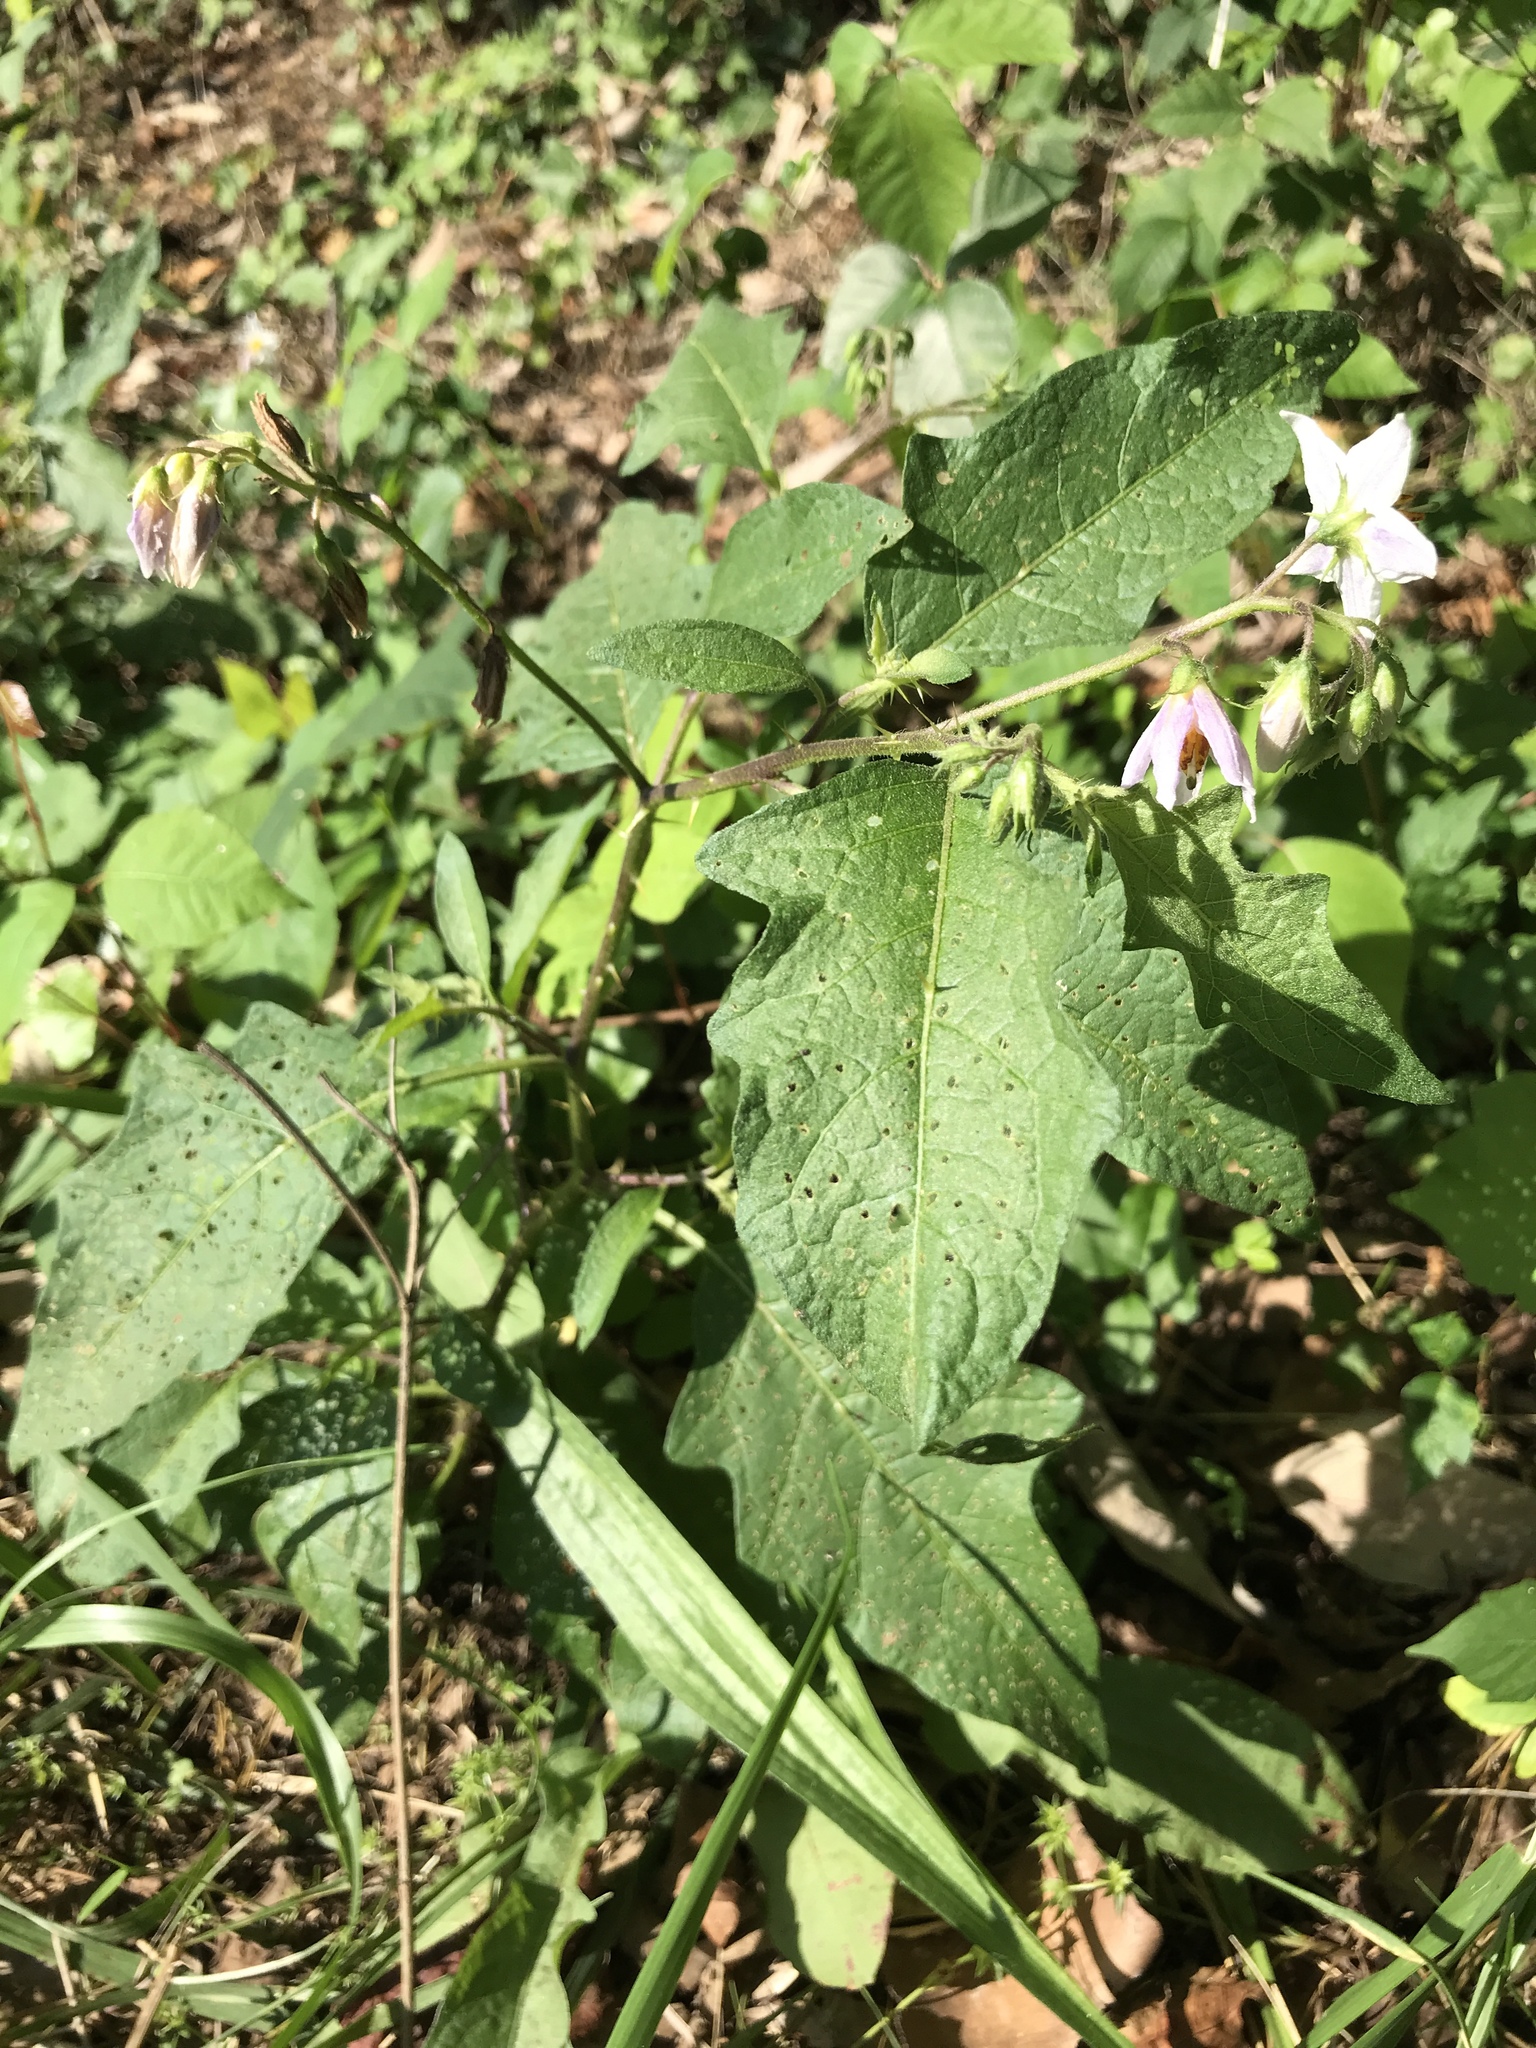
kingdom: Plantae
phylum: Tracheophyta
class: Magnoliopsida
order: Solanales
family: Solanaceae
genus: Solanum
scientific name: Solanum carolinense
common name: Horse-nettle
